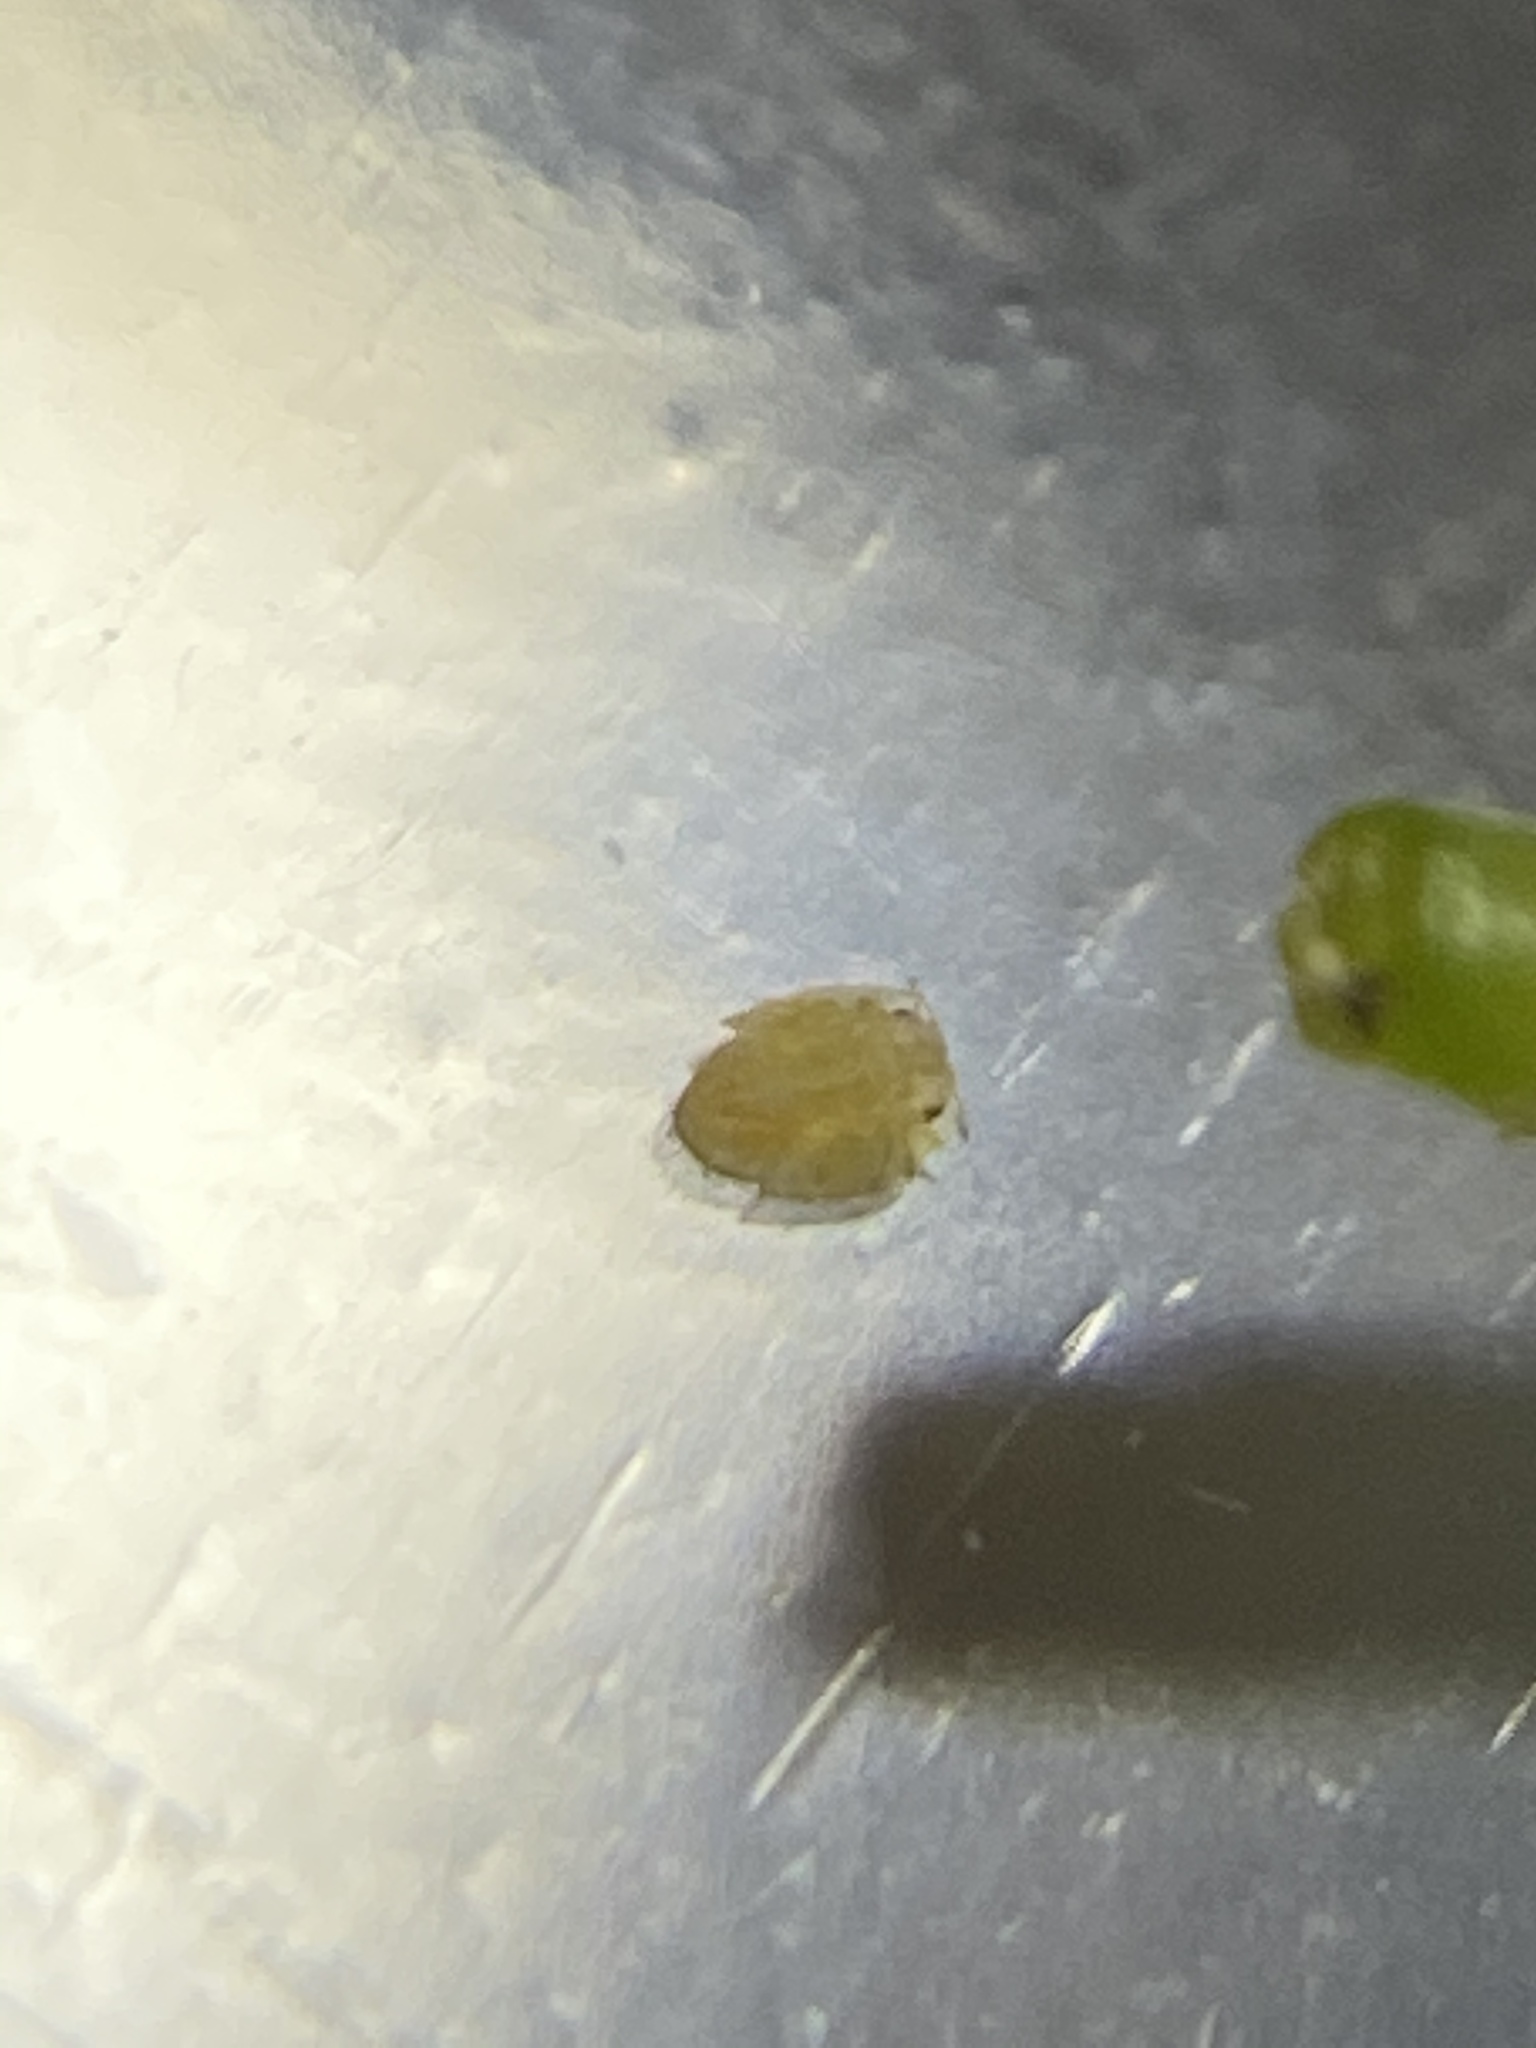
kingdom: Animalia
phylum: Arthropoda
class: Insecta
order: Hemiptera
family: Liviidae
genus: Diaphorina
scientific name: Diaphorina citri
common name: Asian citrus psyllid
